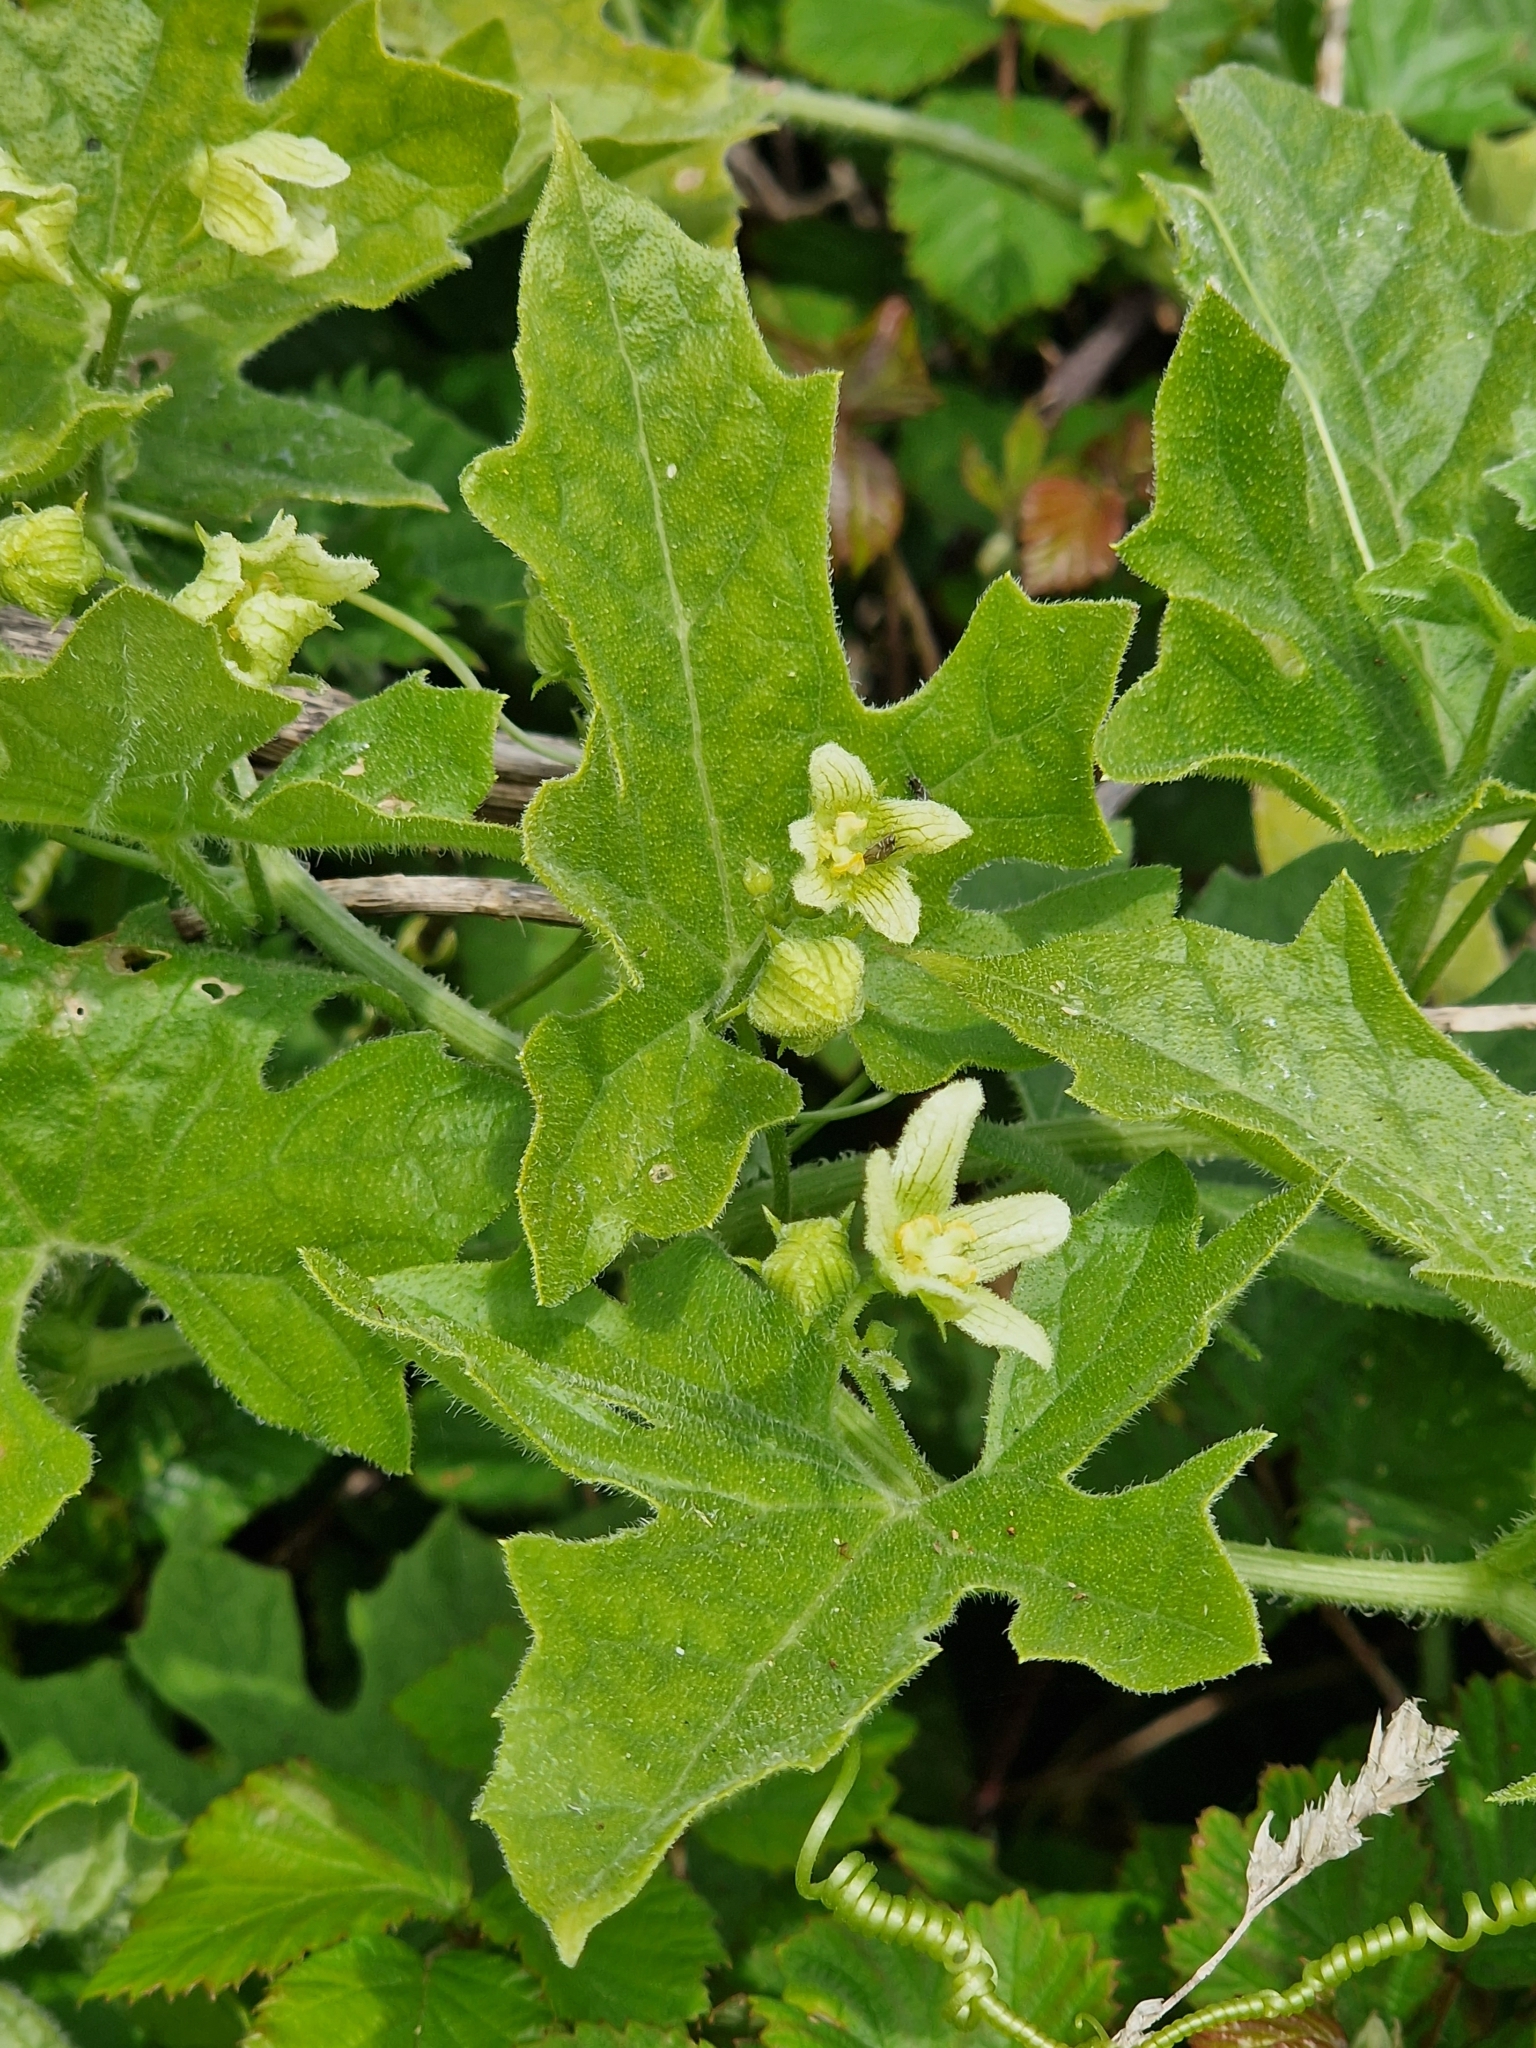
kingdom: Plantae
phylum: Tracheophyta
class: Magnoliopsida
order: Cucurbitales
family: Cucurbitaceae
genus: Bryonia
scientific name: Bryonia dioica
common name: White bryony
